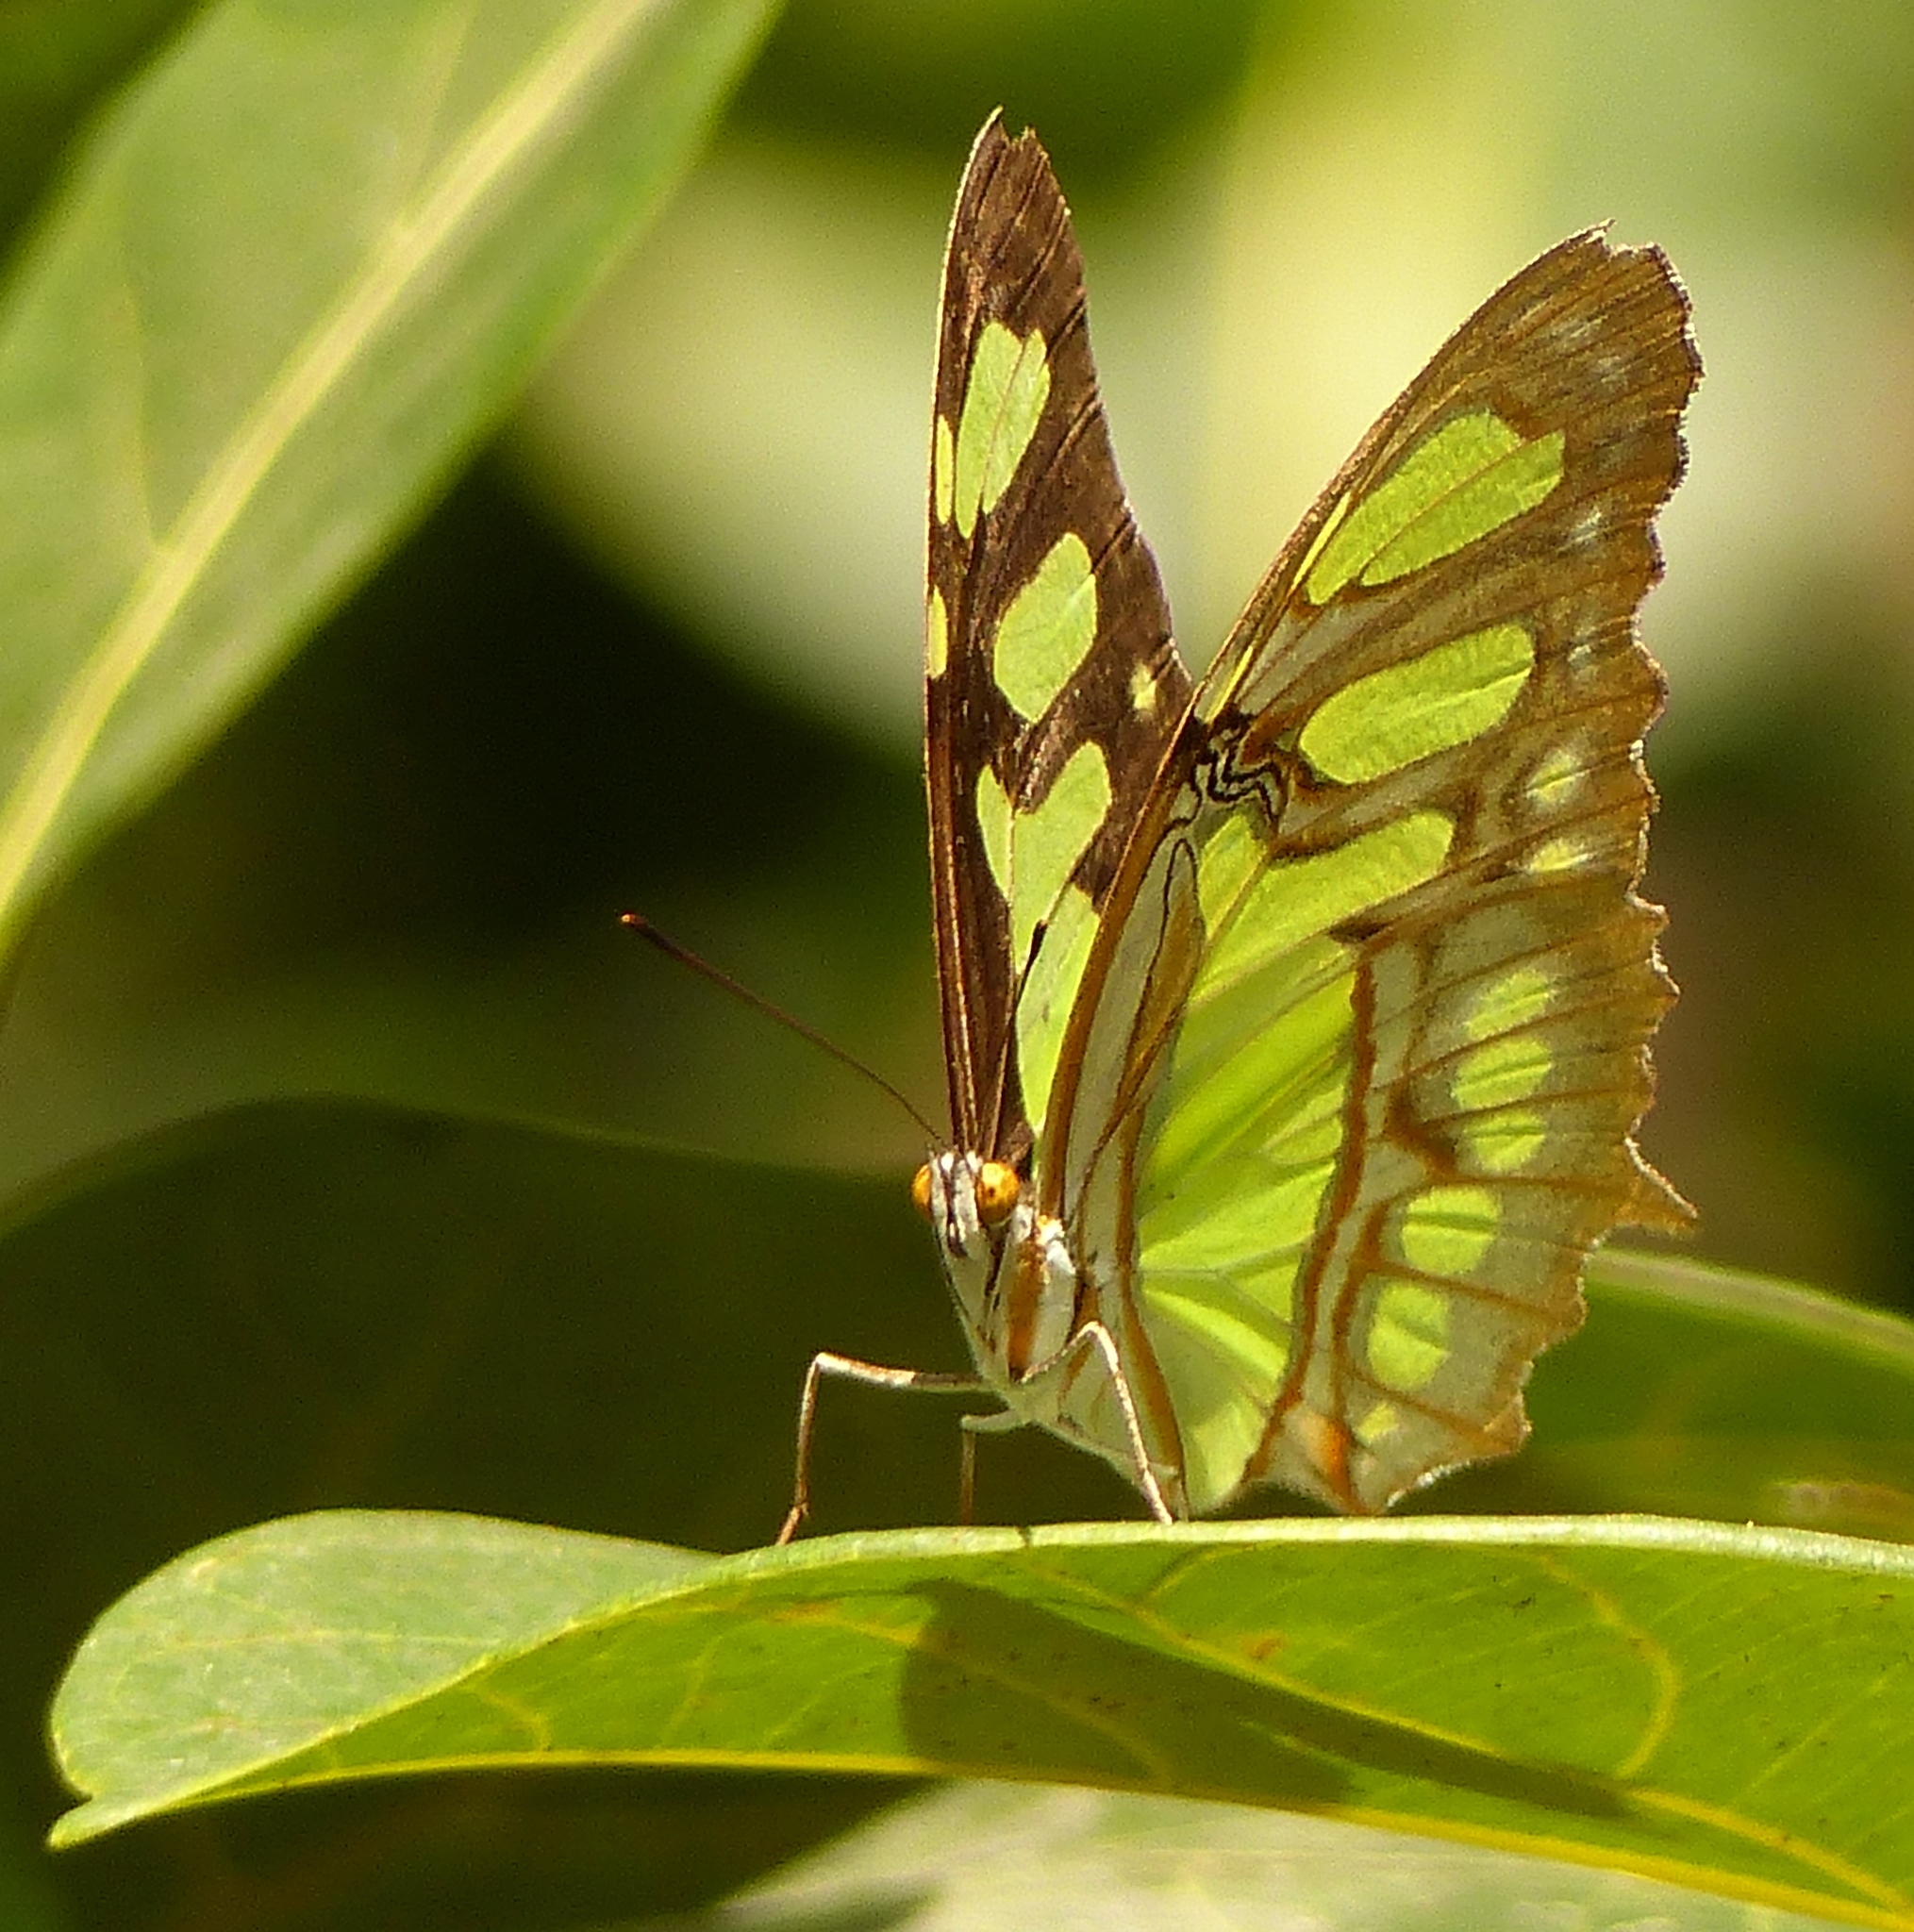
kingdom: Animalia
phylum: Arthropoda
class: Insecta
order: Lepidoptera
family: Nymphalidae
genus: Siproeta
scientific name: Siproeta stelenes
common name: Malachite
